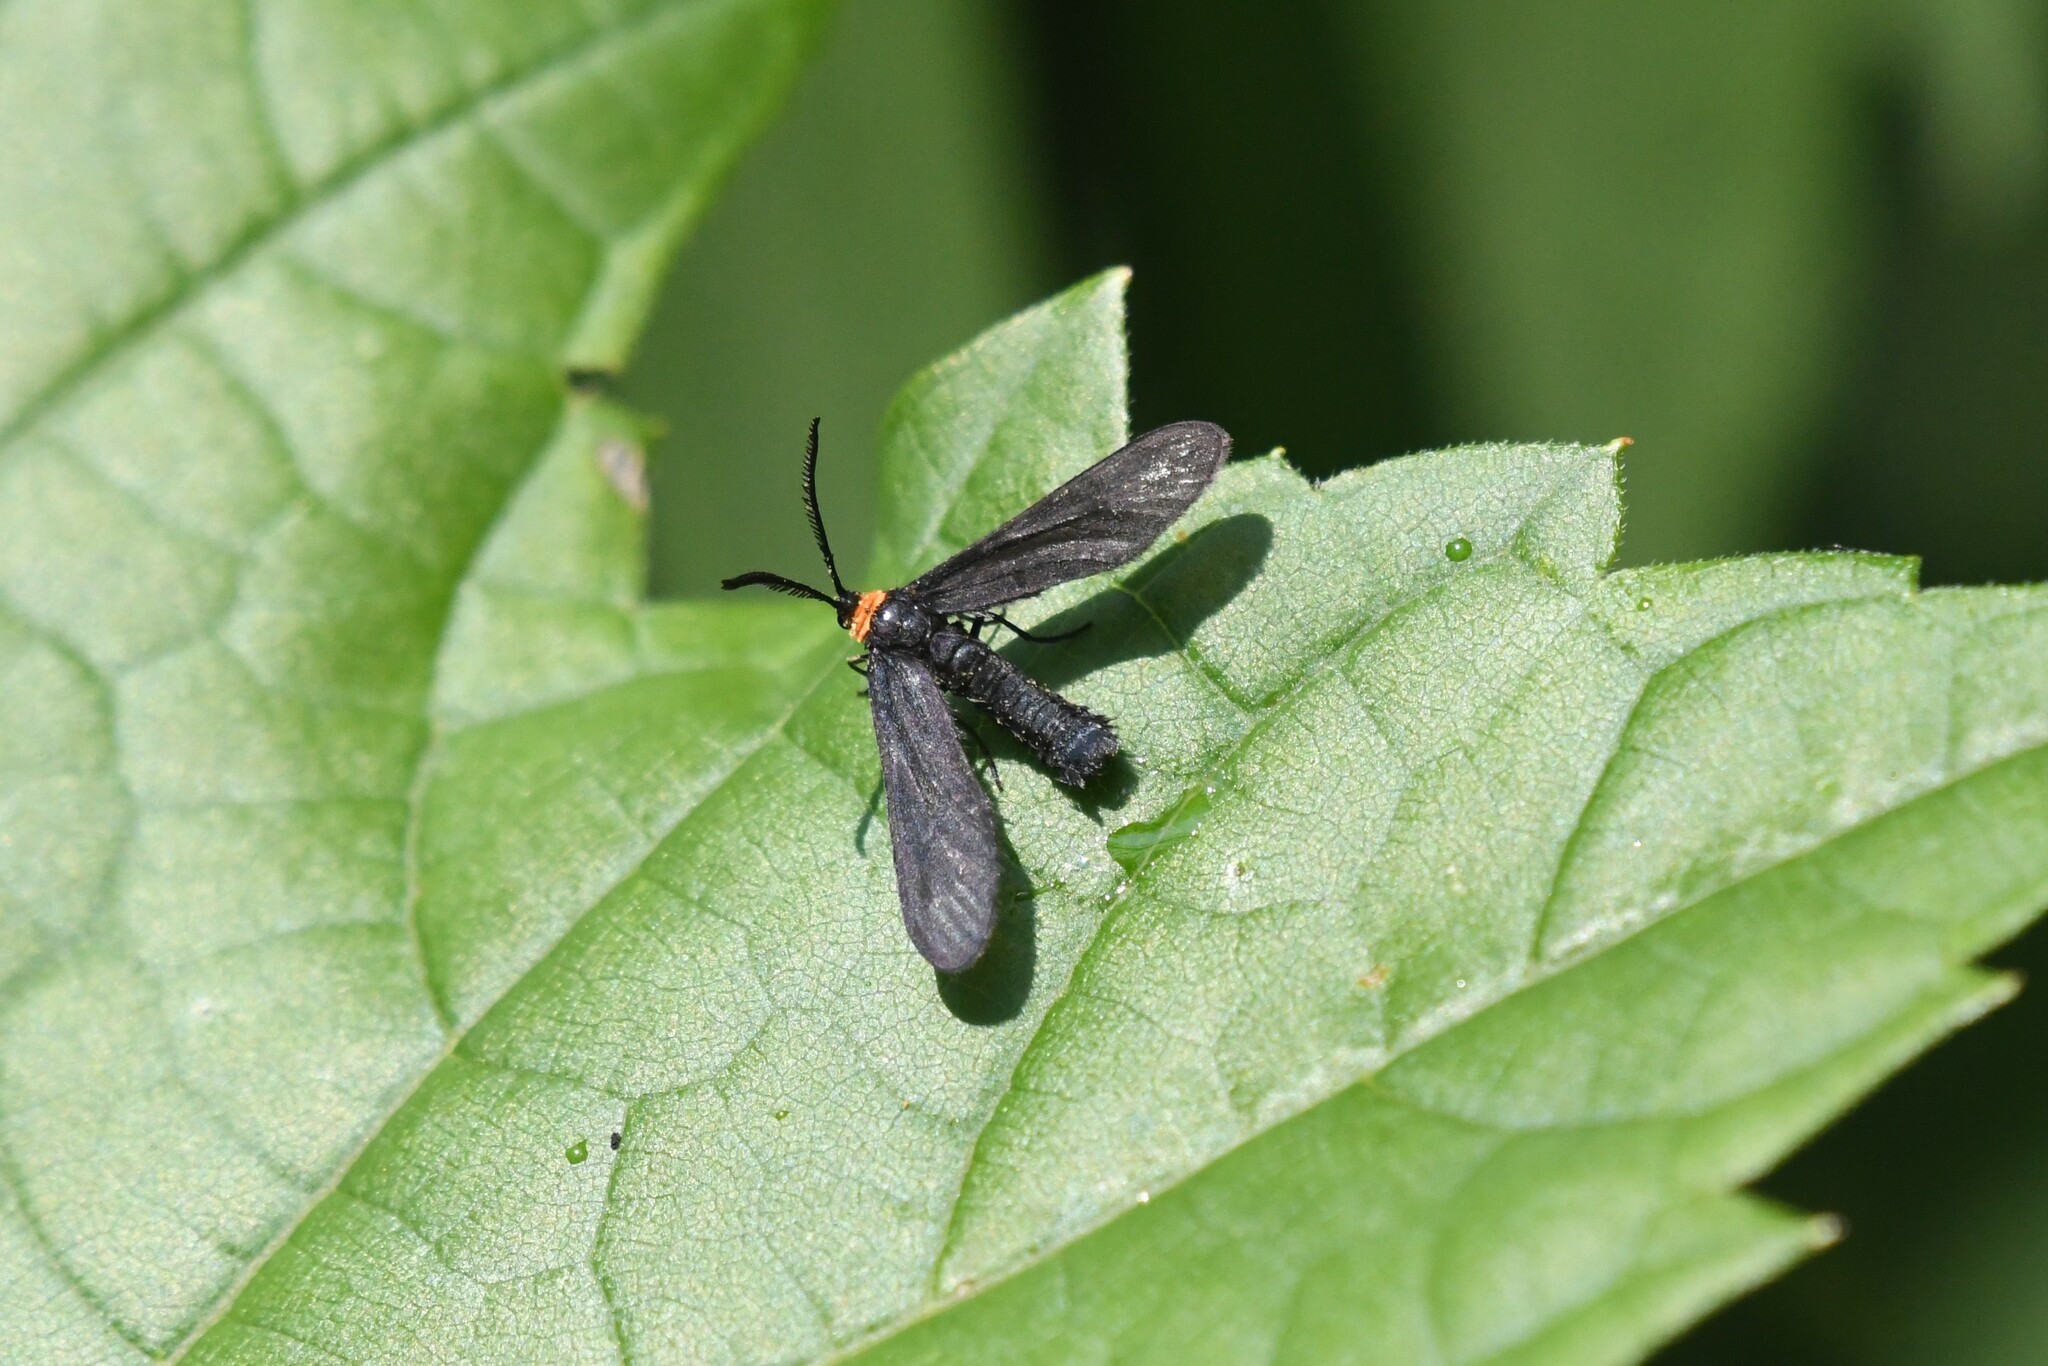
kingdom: Animalia
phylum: Arthropoda
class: Insecta
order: Lepidoptera
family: Zygaenidae
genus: Harrisina
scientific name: Harrisina americana
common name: Grapeleaf skeletonizer moth
